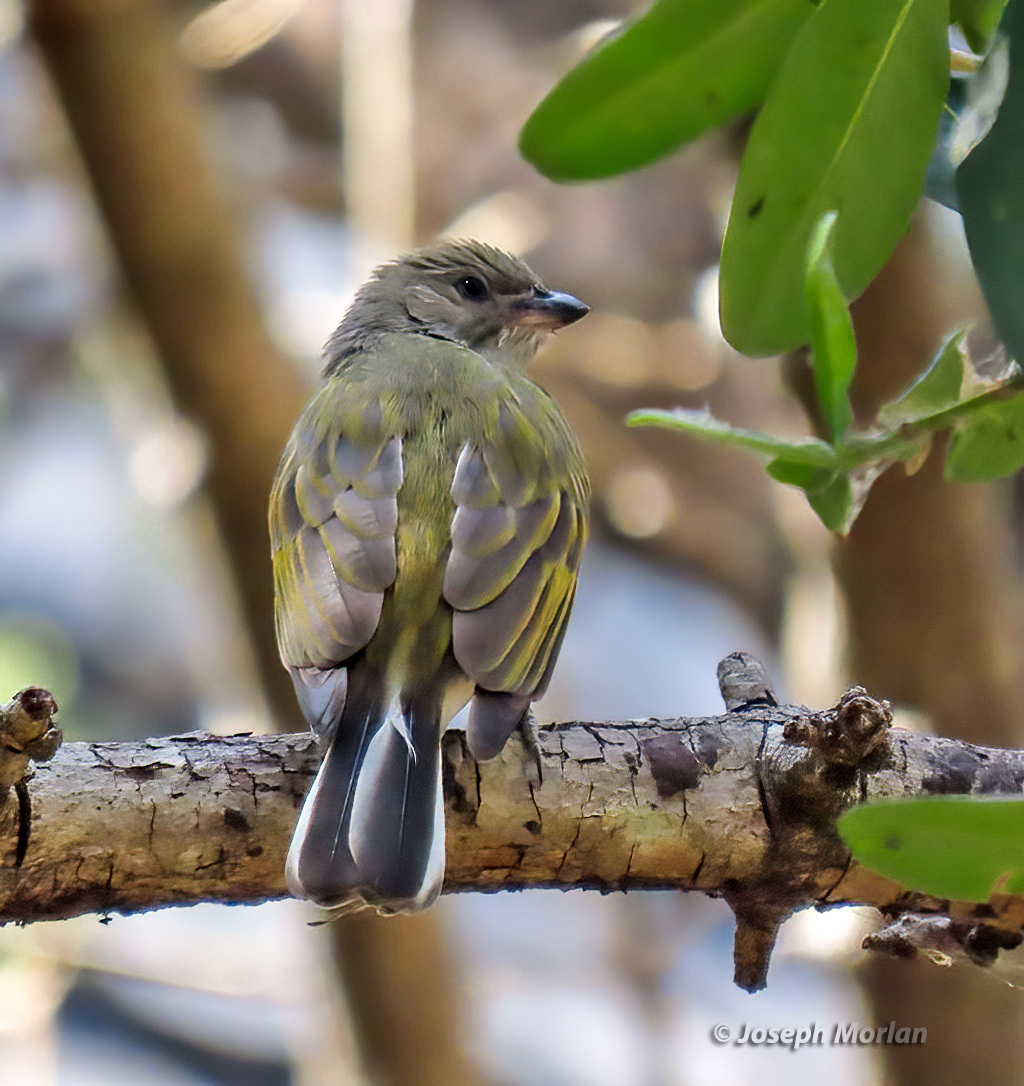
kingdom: Animalia
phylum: Chordata
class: Aves
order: Piciformes
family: Indicatoridae
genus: Indicator
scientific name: Indicator minor
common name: Lesser honeyguide
